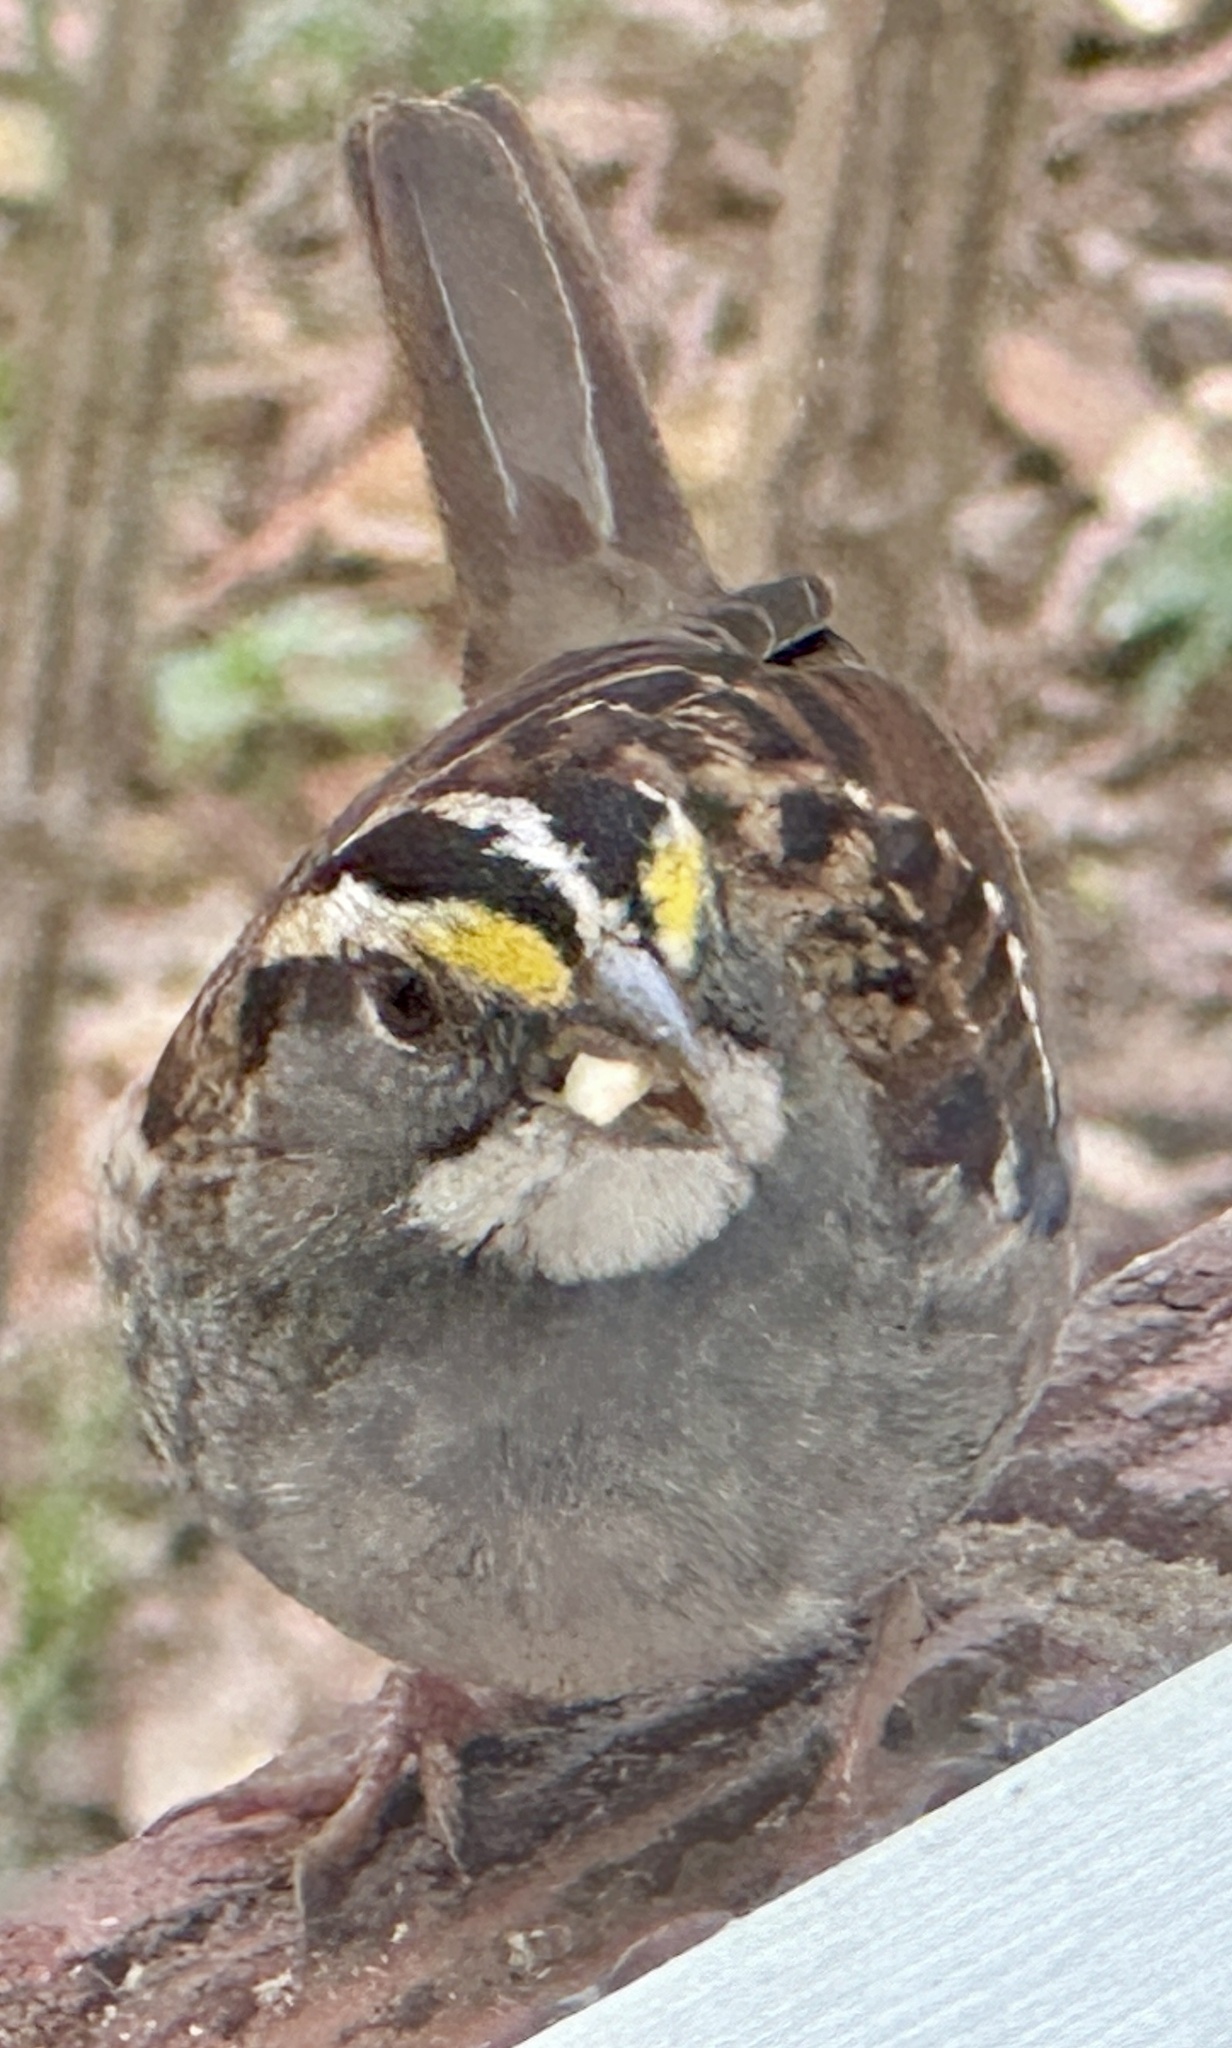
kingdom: Animalia
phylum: Chordata
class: Aves
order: Passeriformes
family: Passerellidae
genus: Zonotrichia
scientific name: Zonotrichia albicollis
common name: White-throated sparrow
